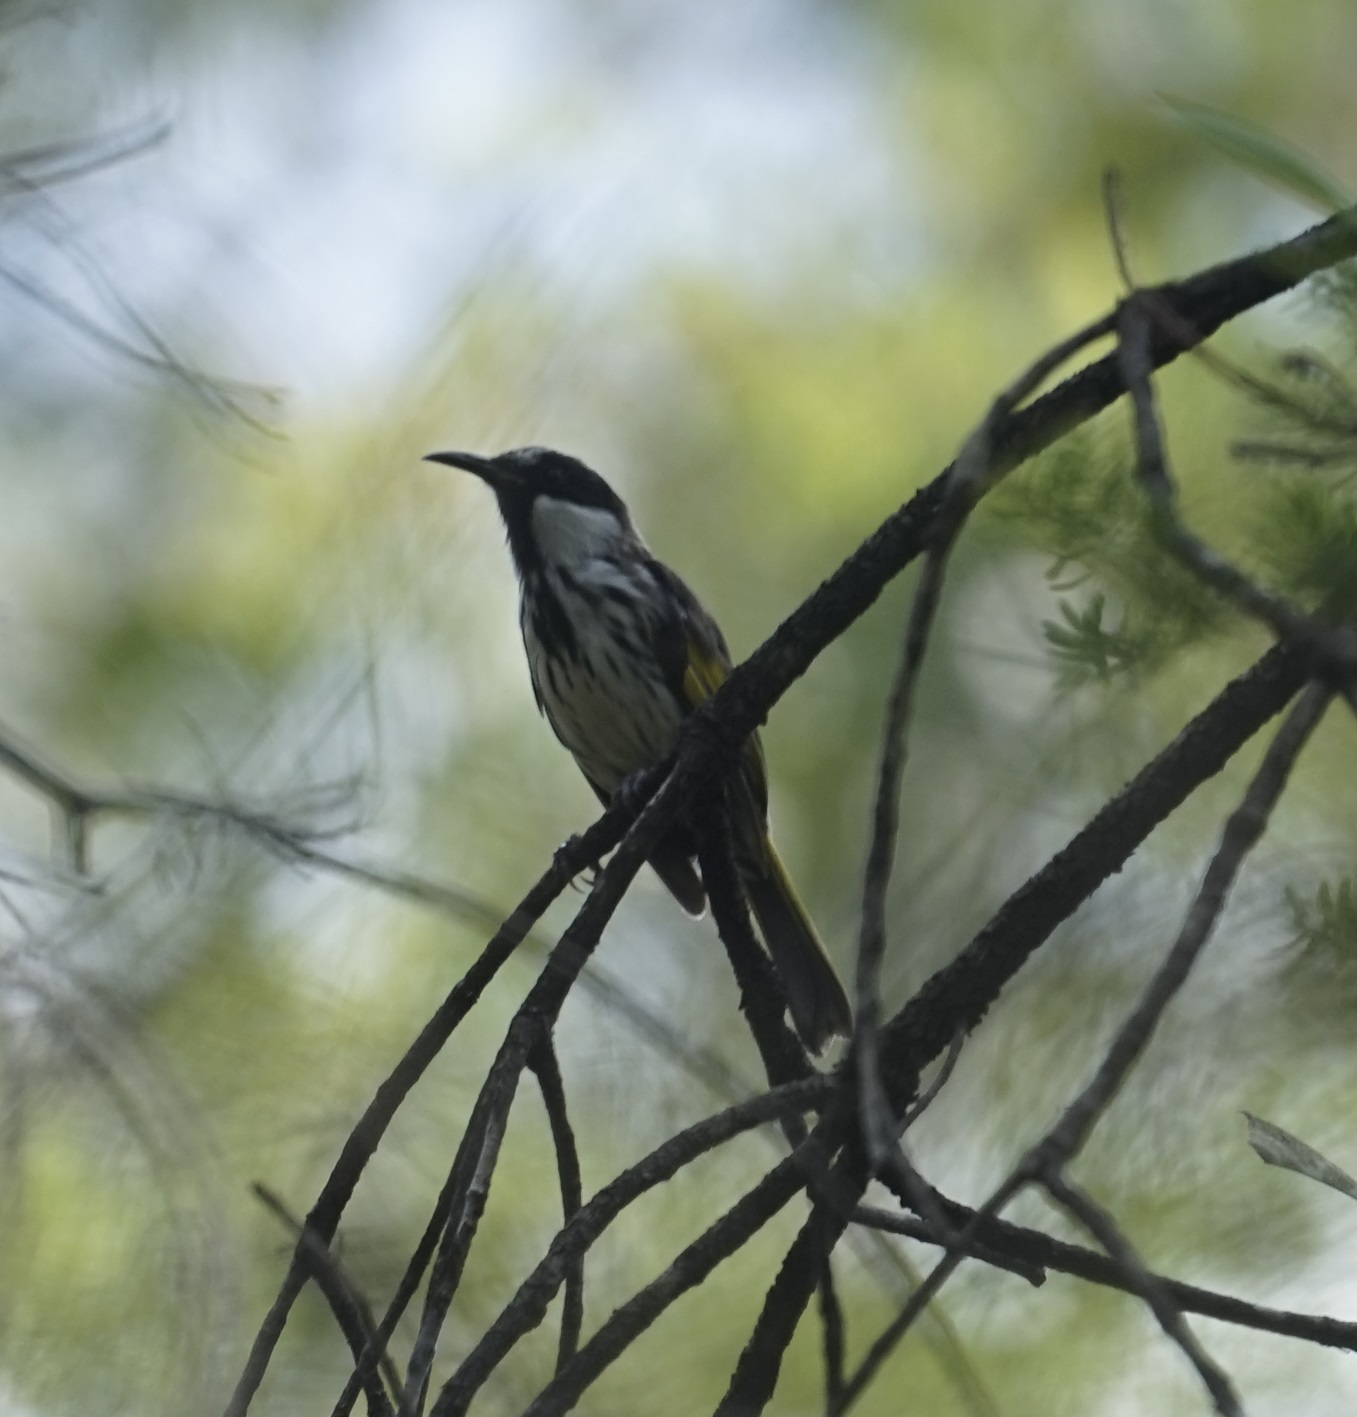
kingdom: Animalia
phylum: Chordata
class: Aves
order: Passeriformes
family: Meliphagidae
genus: Phylidonyris
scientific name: Phylidonyris niger
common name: White-cheeked honeyeater
